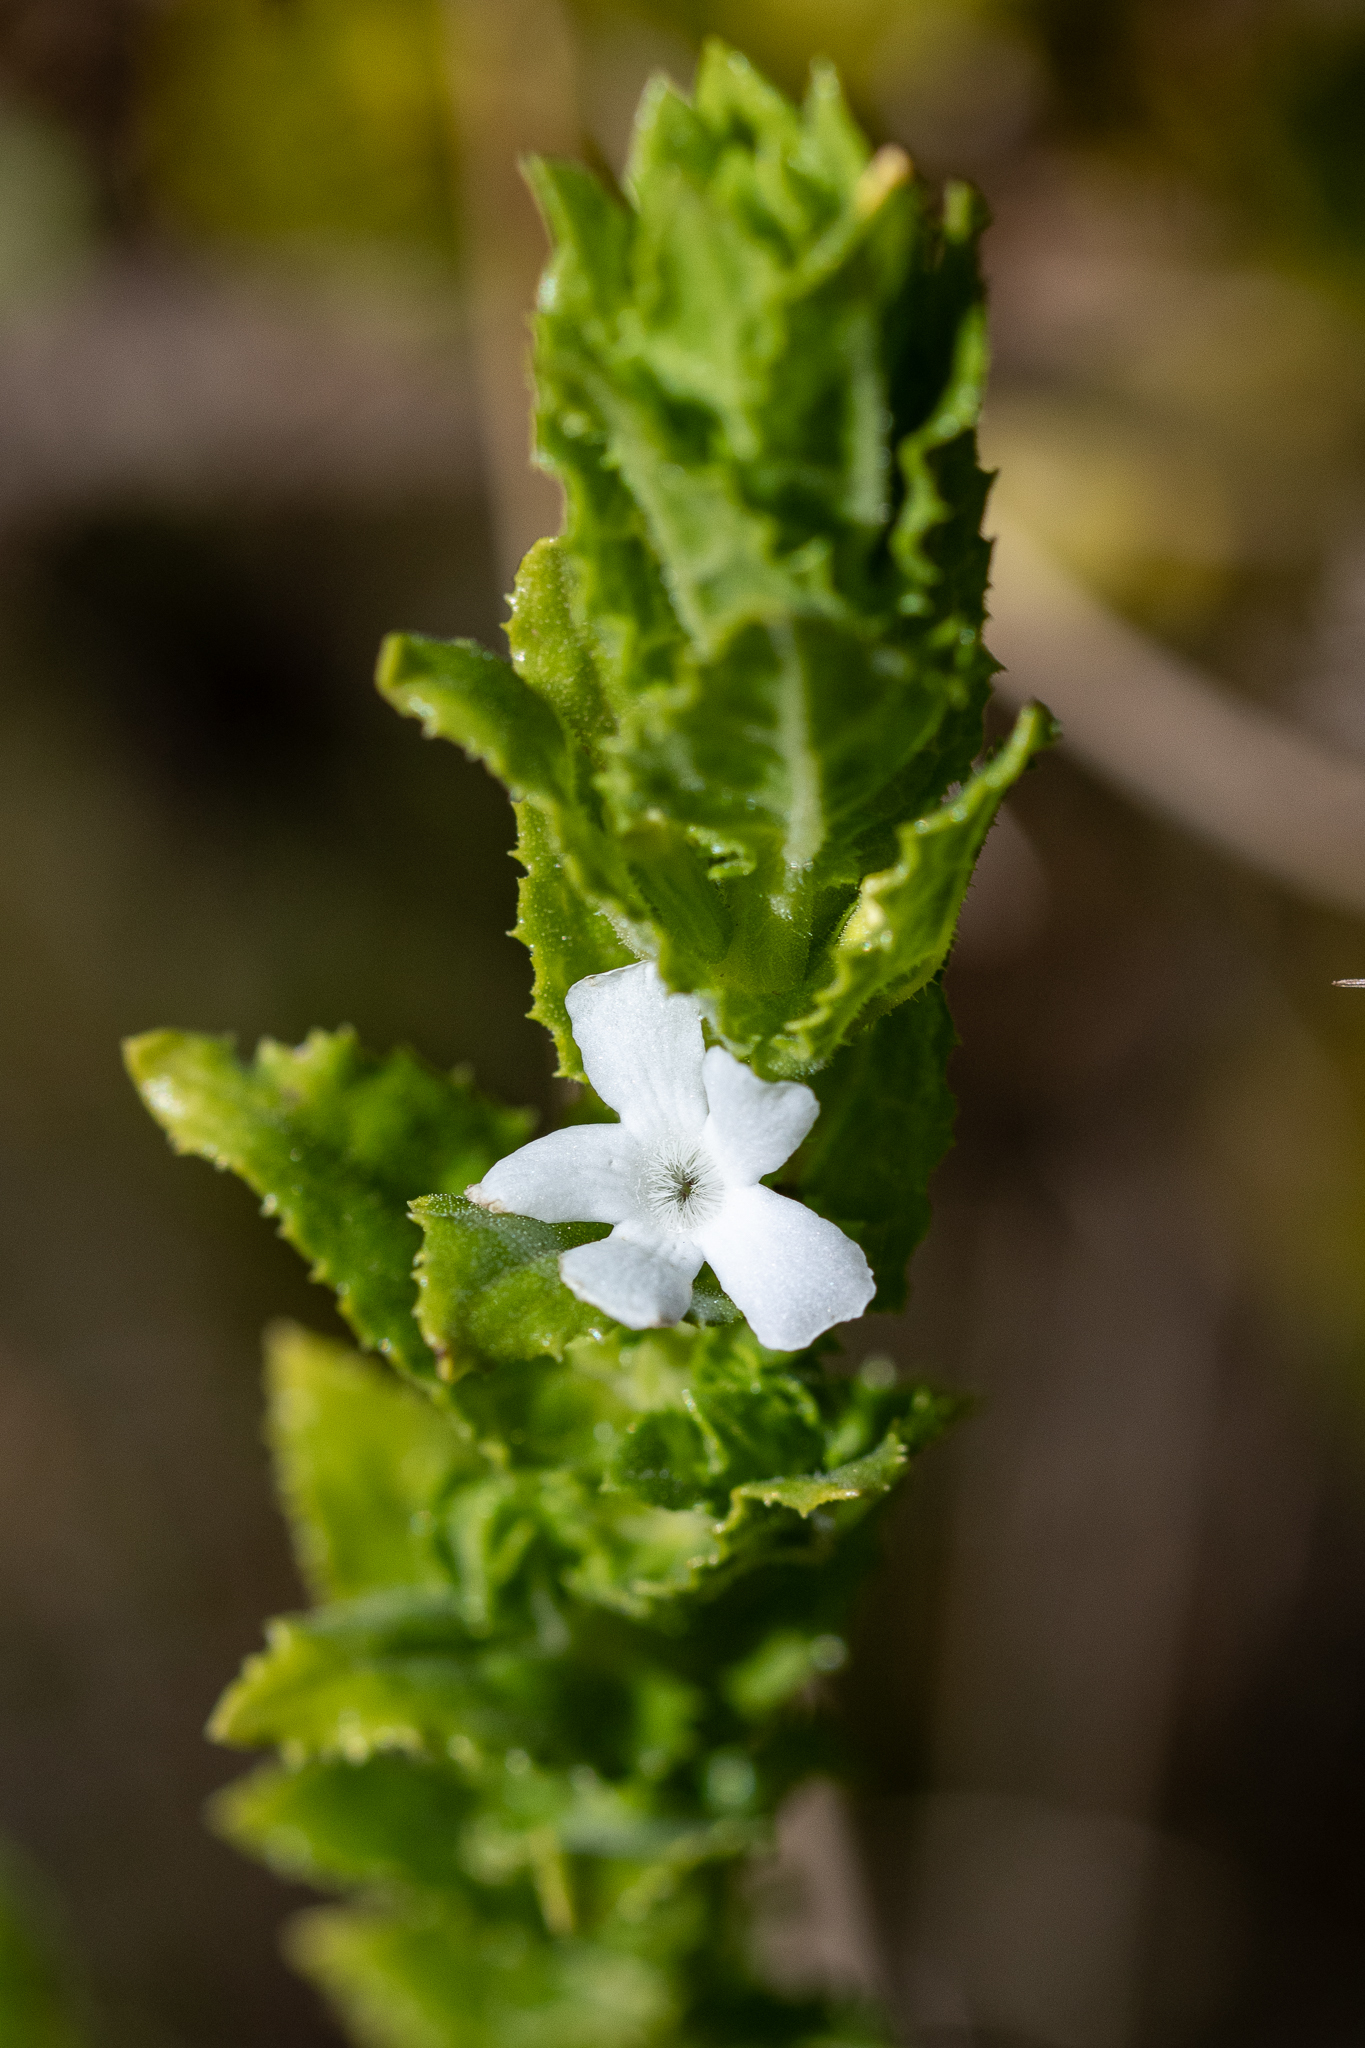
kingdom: Plantae
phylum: Tracheophyta
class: Magnoliopsida
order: Lamiales
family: Scrophulariaceae
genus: Oftia
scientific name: Oftia africana
